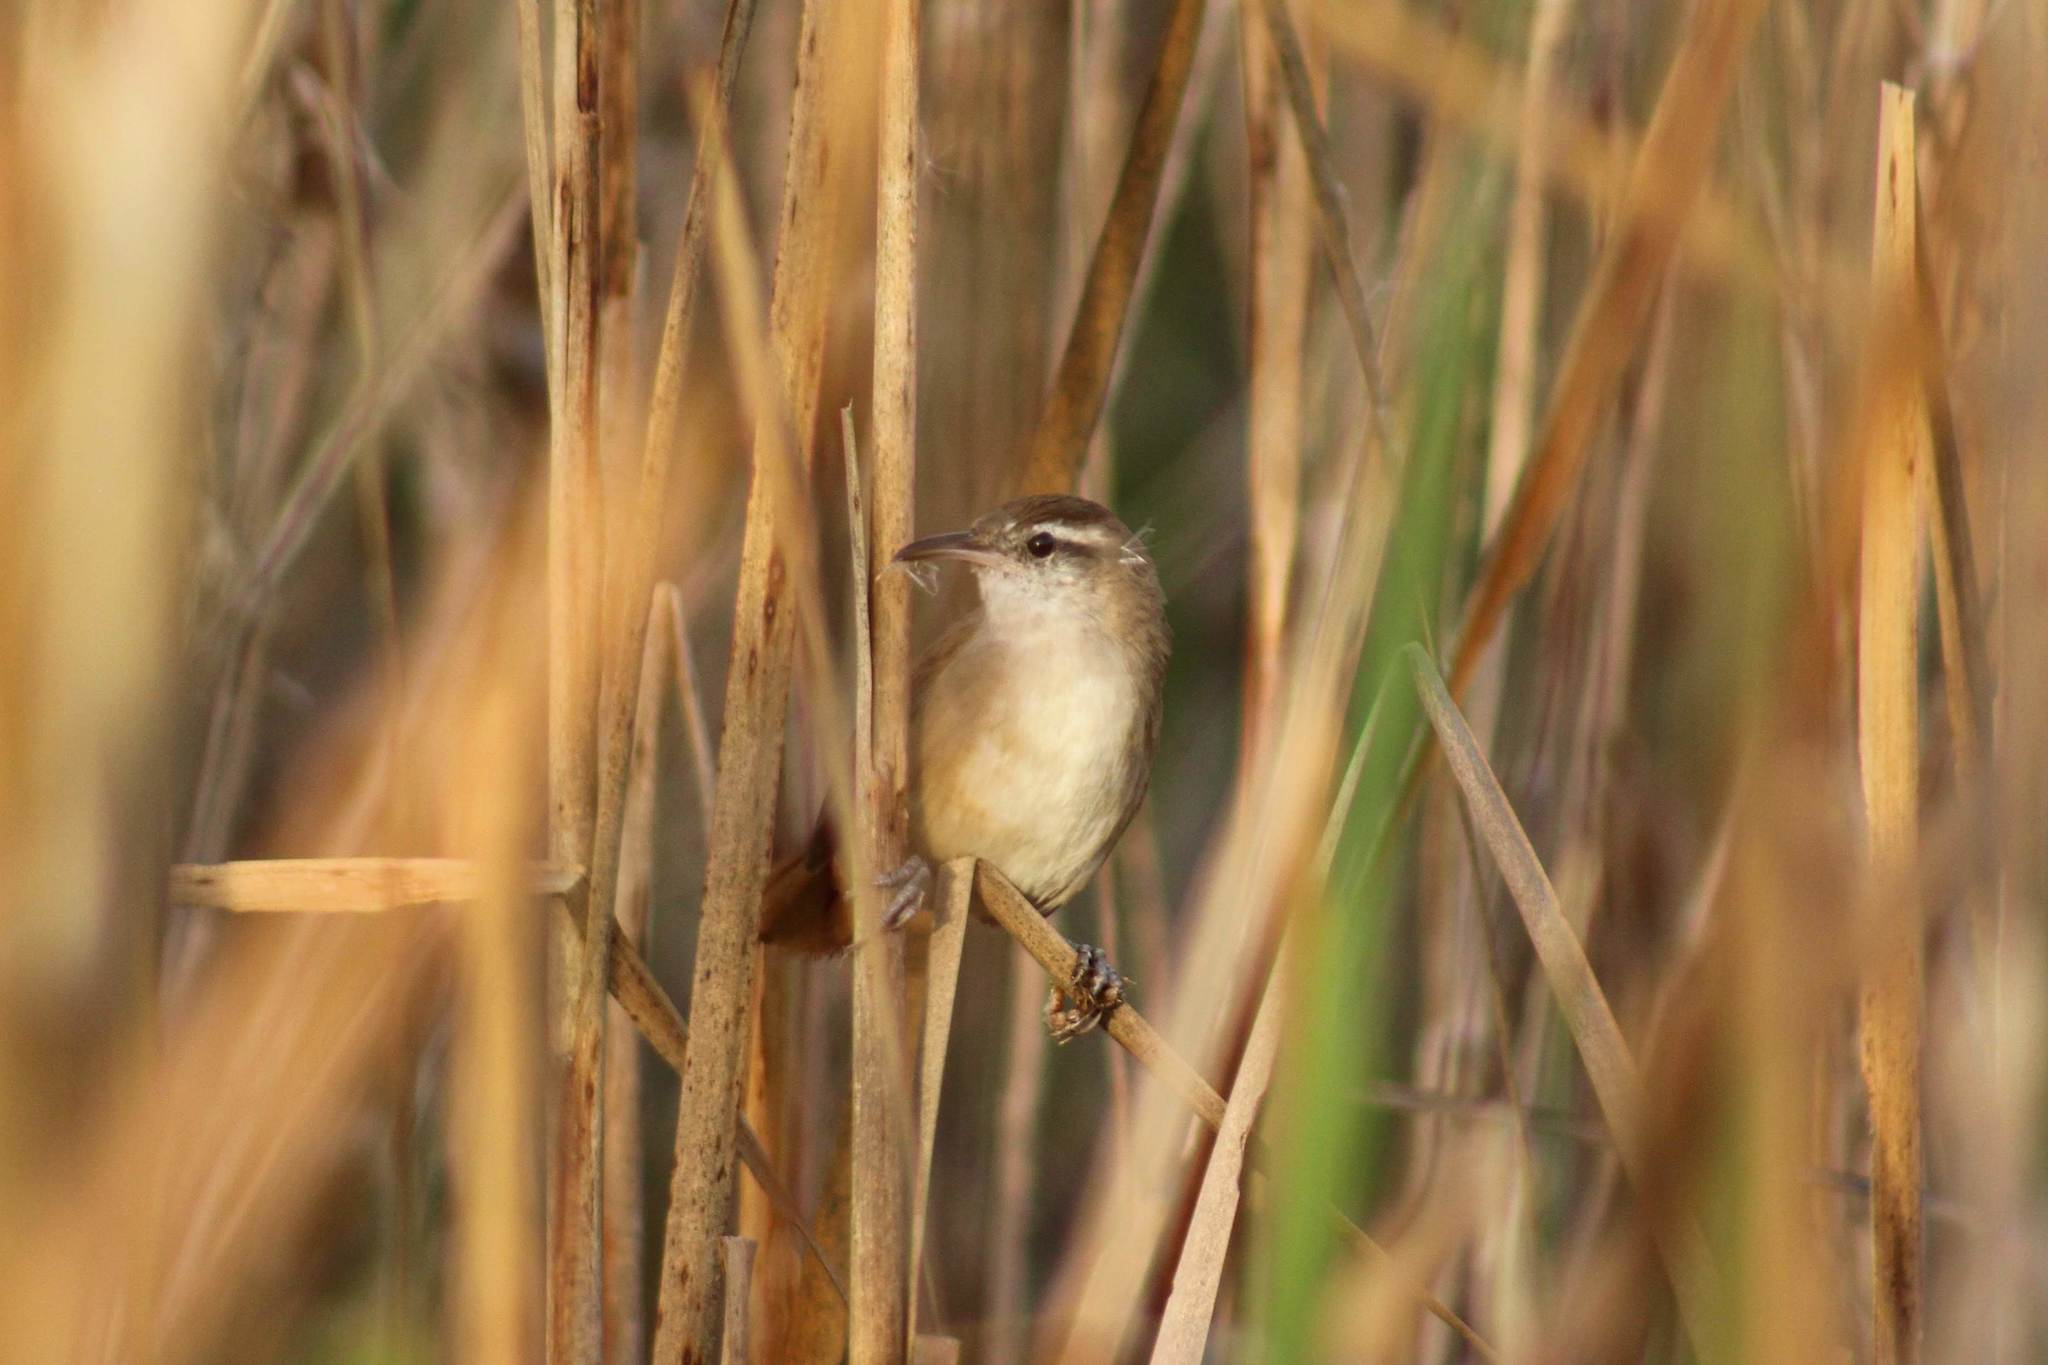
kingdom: Animalia
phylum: Chordata
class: Aves
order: Passeriformes
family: Furnariidae
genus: Limnornis
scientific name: Limnornis curvirostris
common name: Curve-billed reedhaunter
